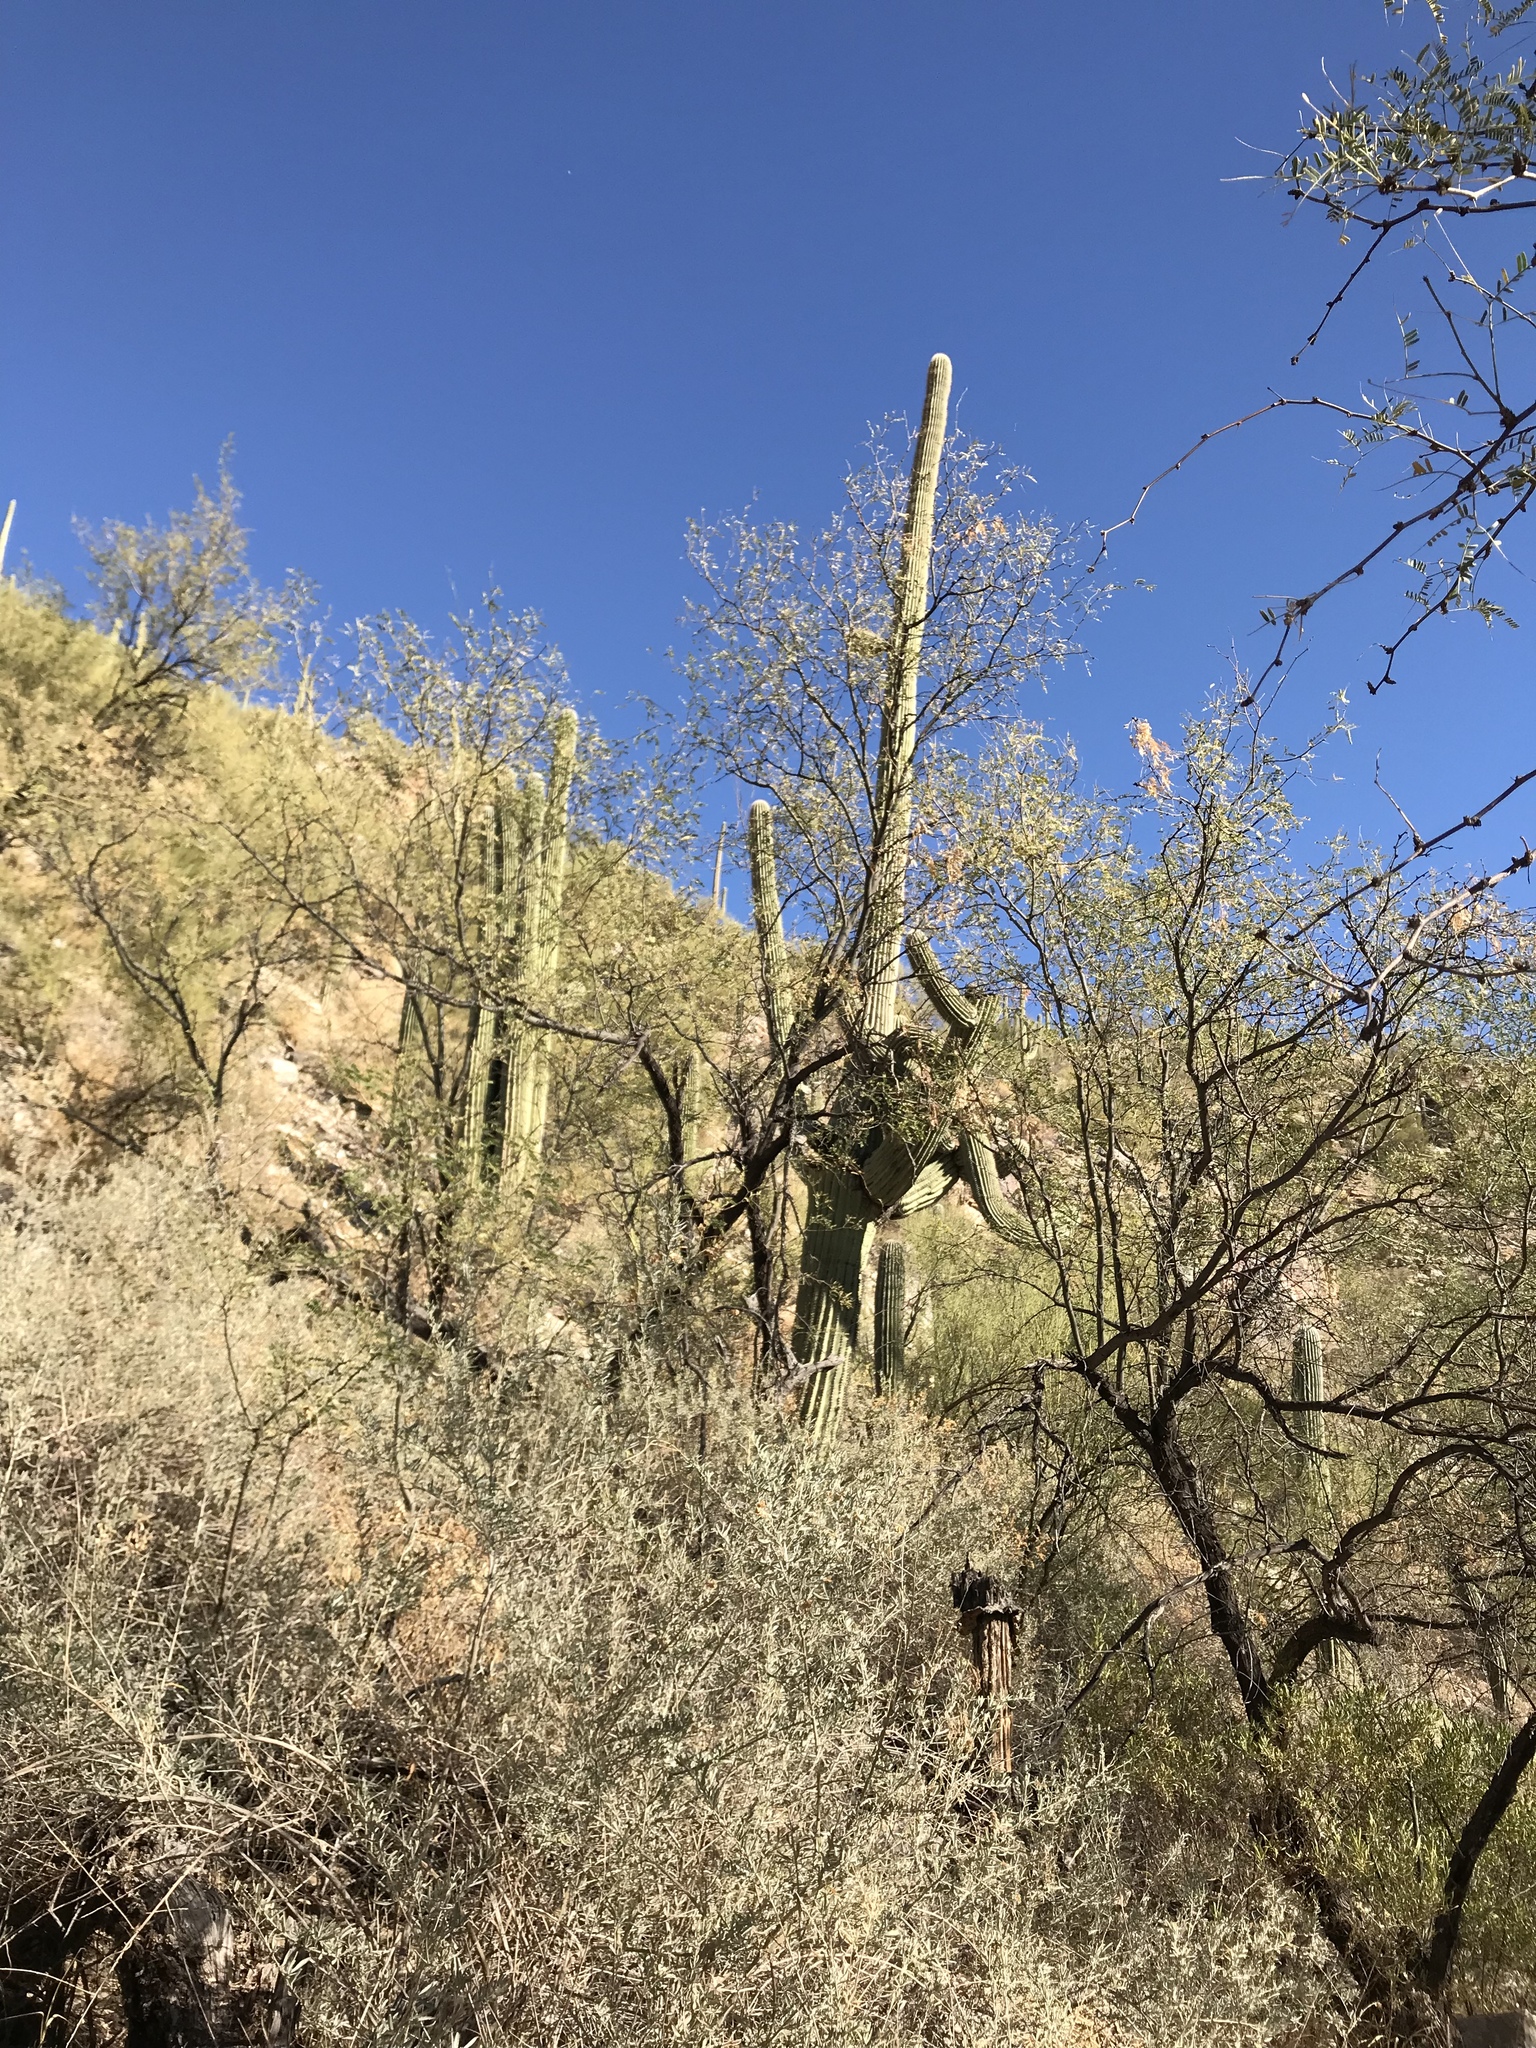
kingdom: Plantae
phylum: Tracheophyta
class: Magnoliopsida
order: Fabales
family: Fabaceae
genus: Parkinsonia
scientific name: Parkinsonia microphylla
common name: Yellow paloverde
